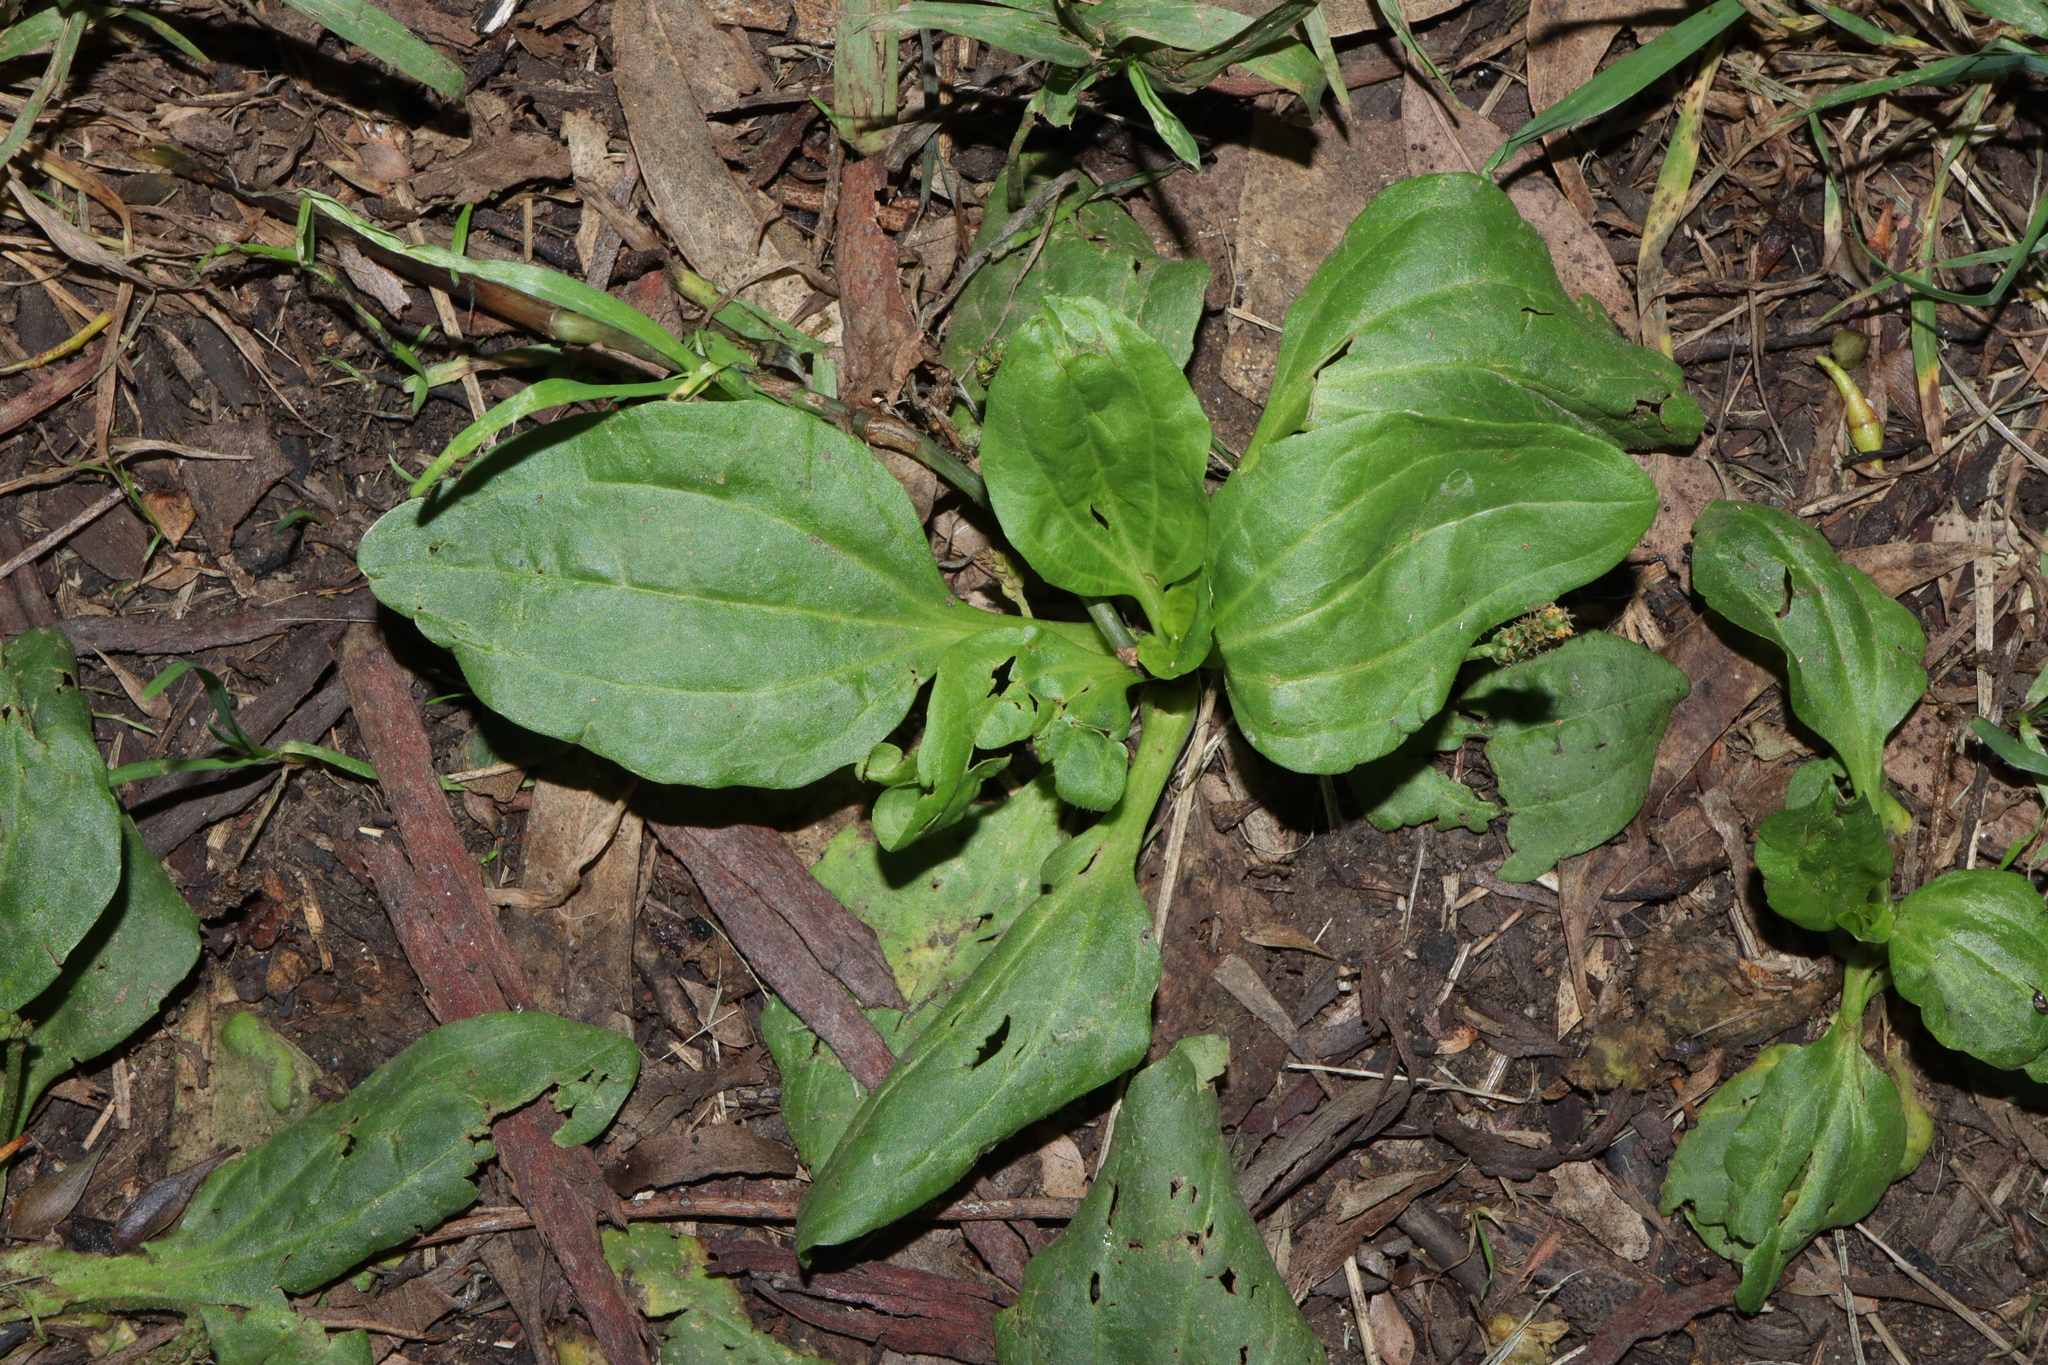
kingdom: Plantae
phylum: Tracheophyta
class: Magnoliopsida
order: Lamiales
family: Plantaginaceae
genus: Plantago
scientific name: Plantago major
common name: Common plantain
